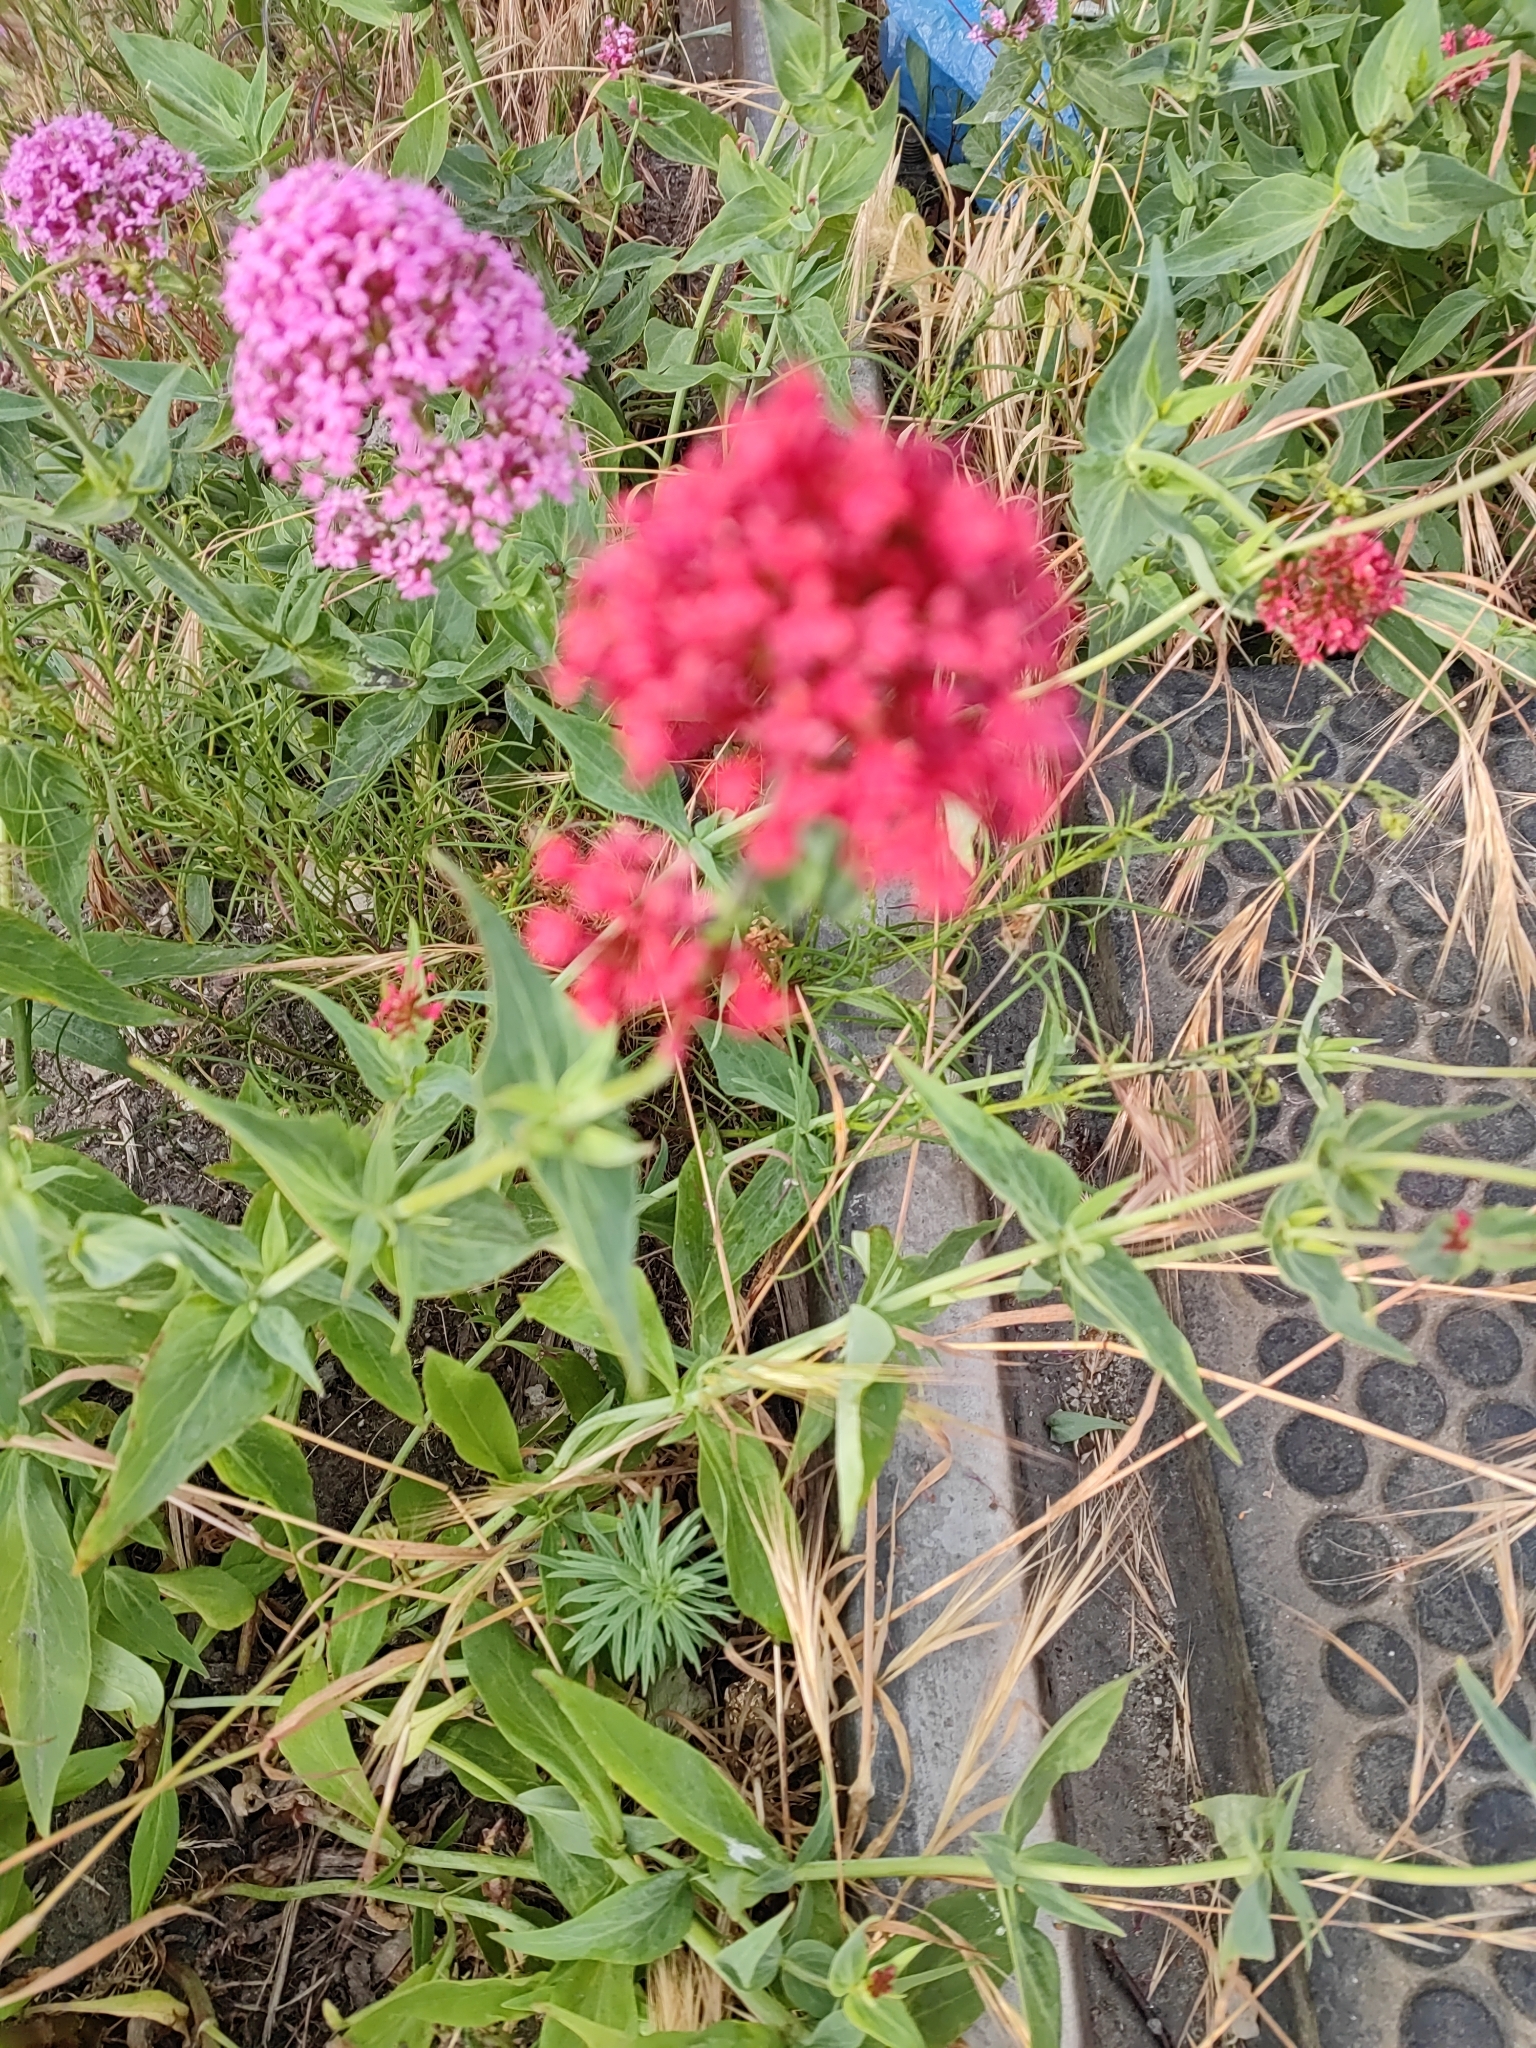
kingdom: Plantae
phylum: Tracheophyta
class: Magnoliopsida
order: Dipsacales
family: Caprifoliaceae
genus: Centranthus
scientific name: Centranthus ruber
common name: Red valerian
